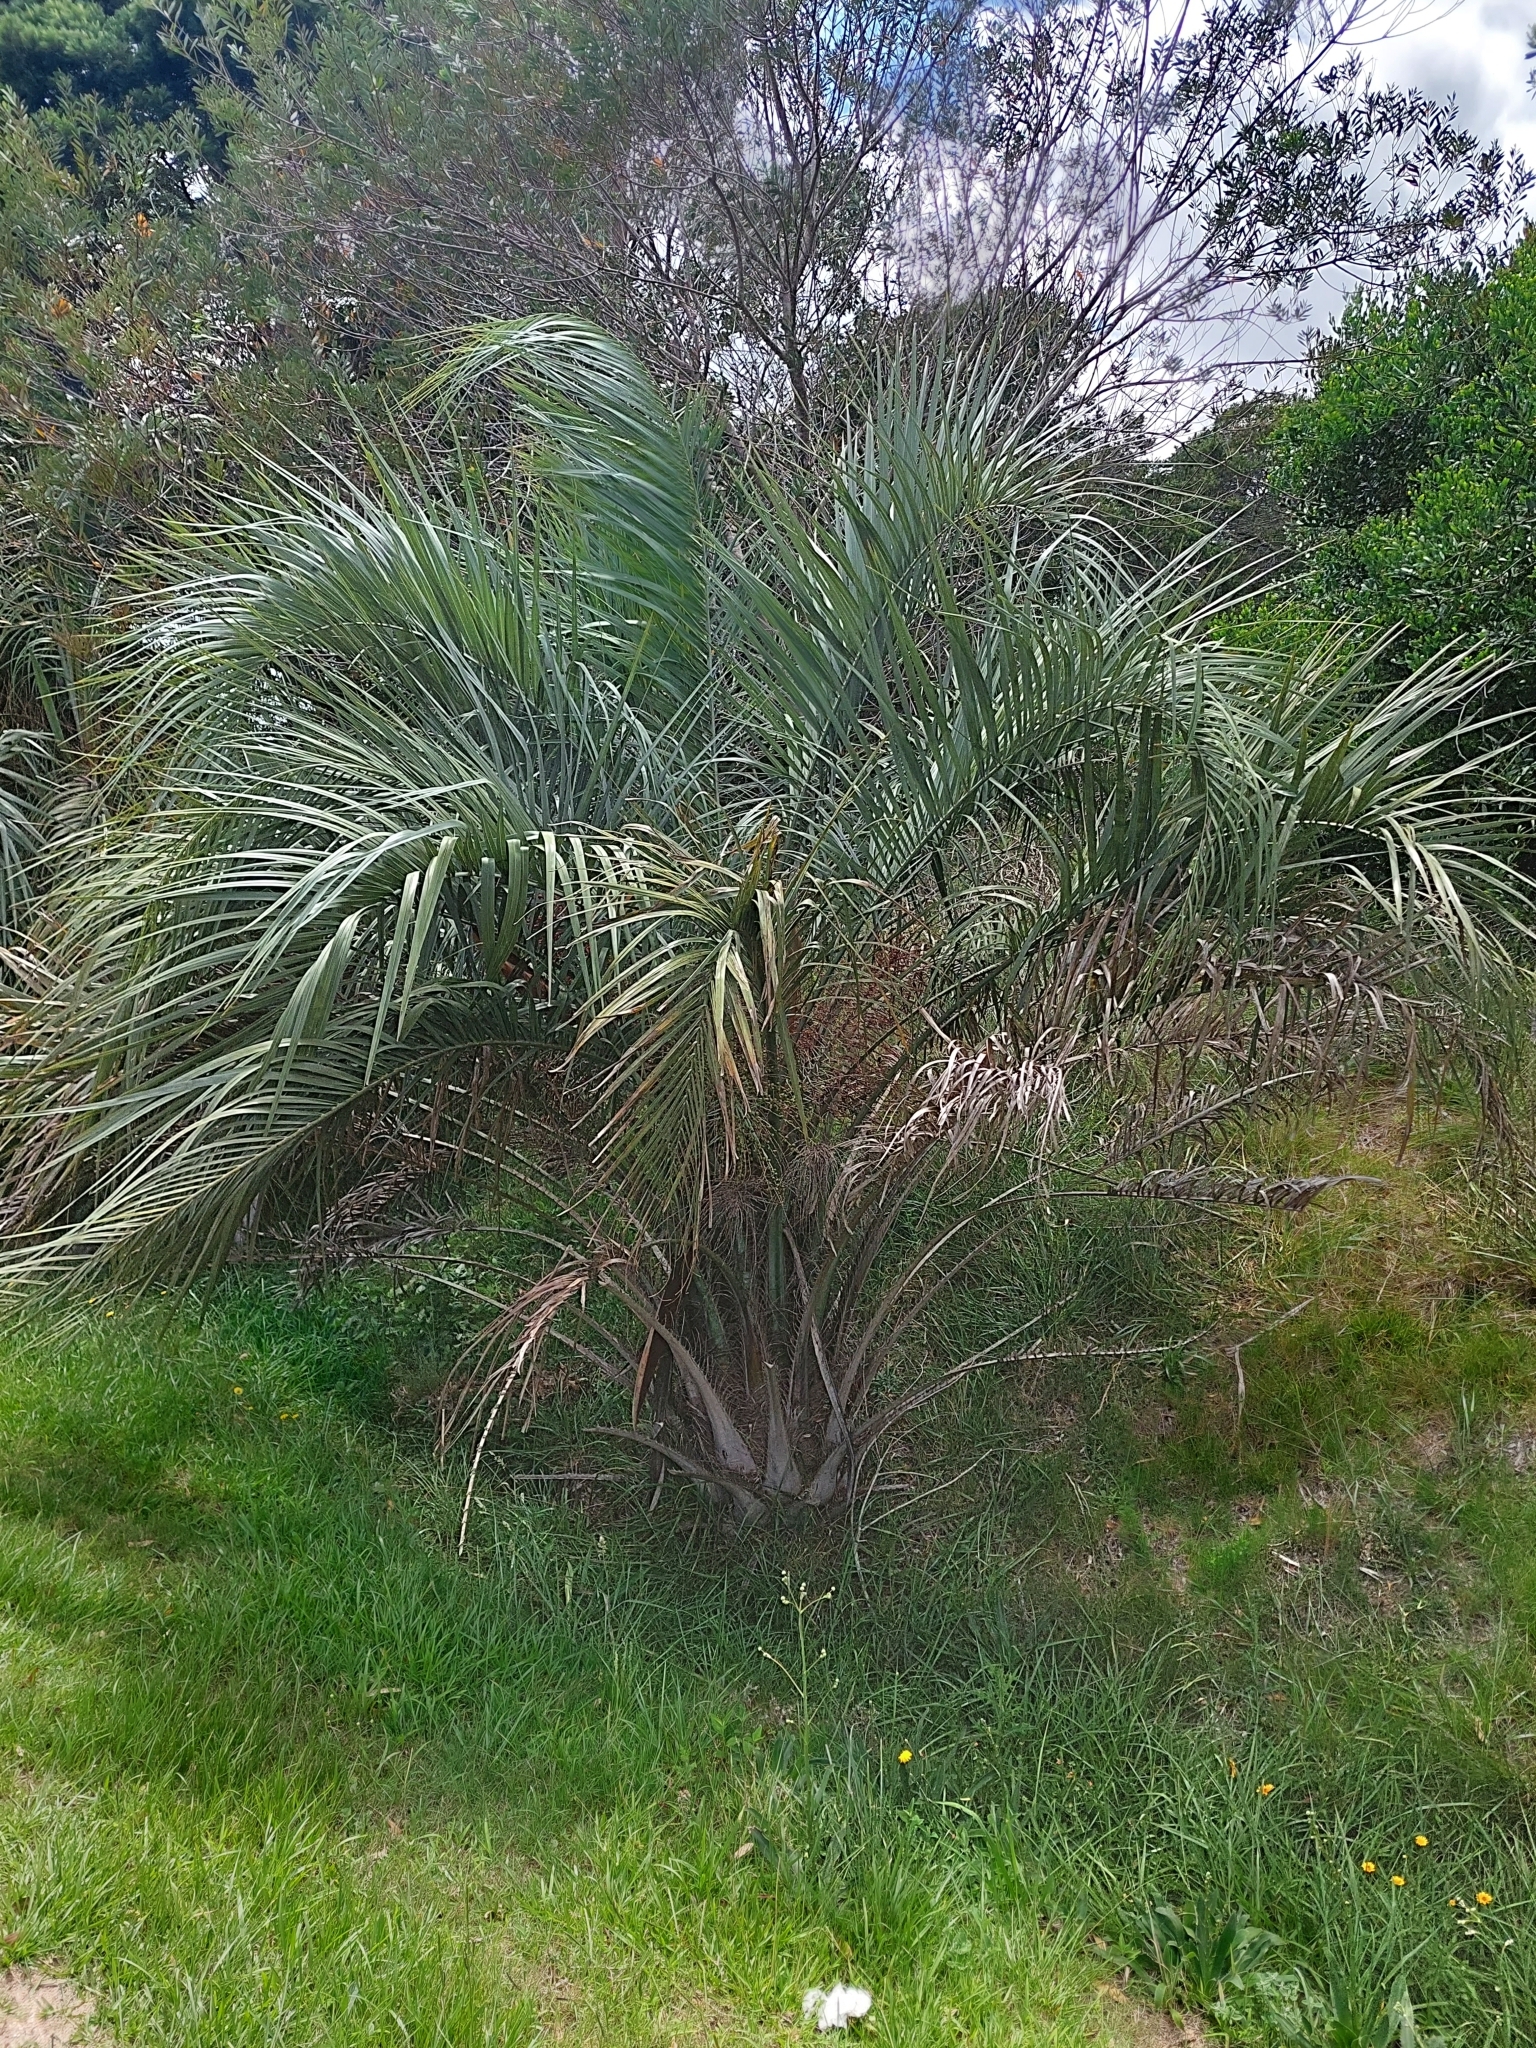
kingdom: Plantae
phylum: Tracheophyta
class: Liliopsida
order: Arecales
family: Arecaceae
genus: Butia
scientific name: Butia odorata
